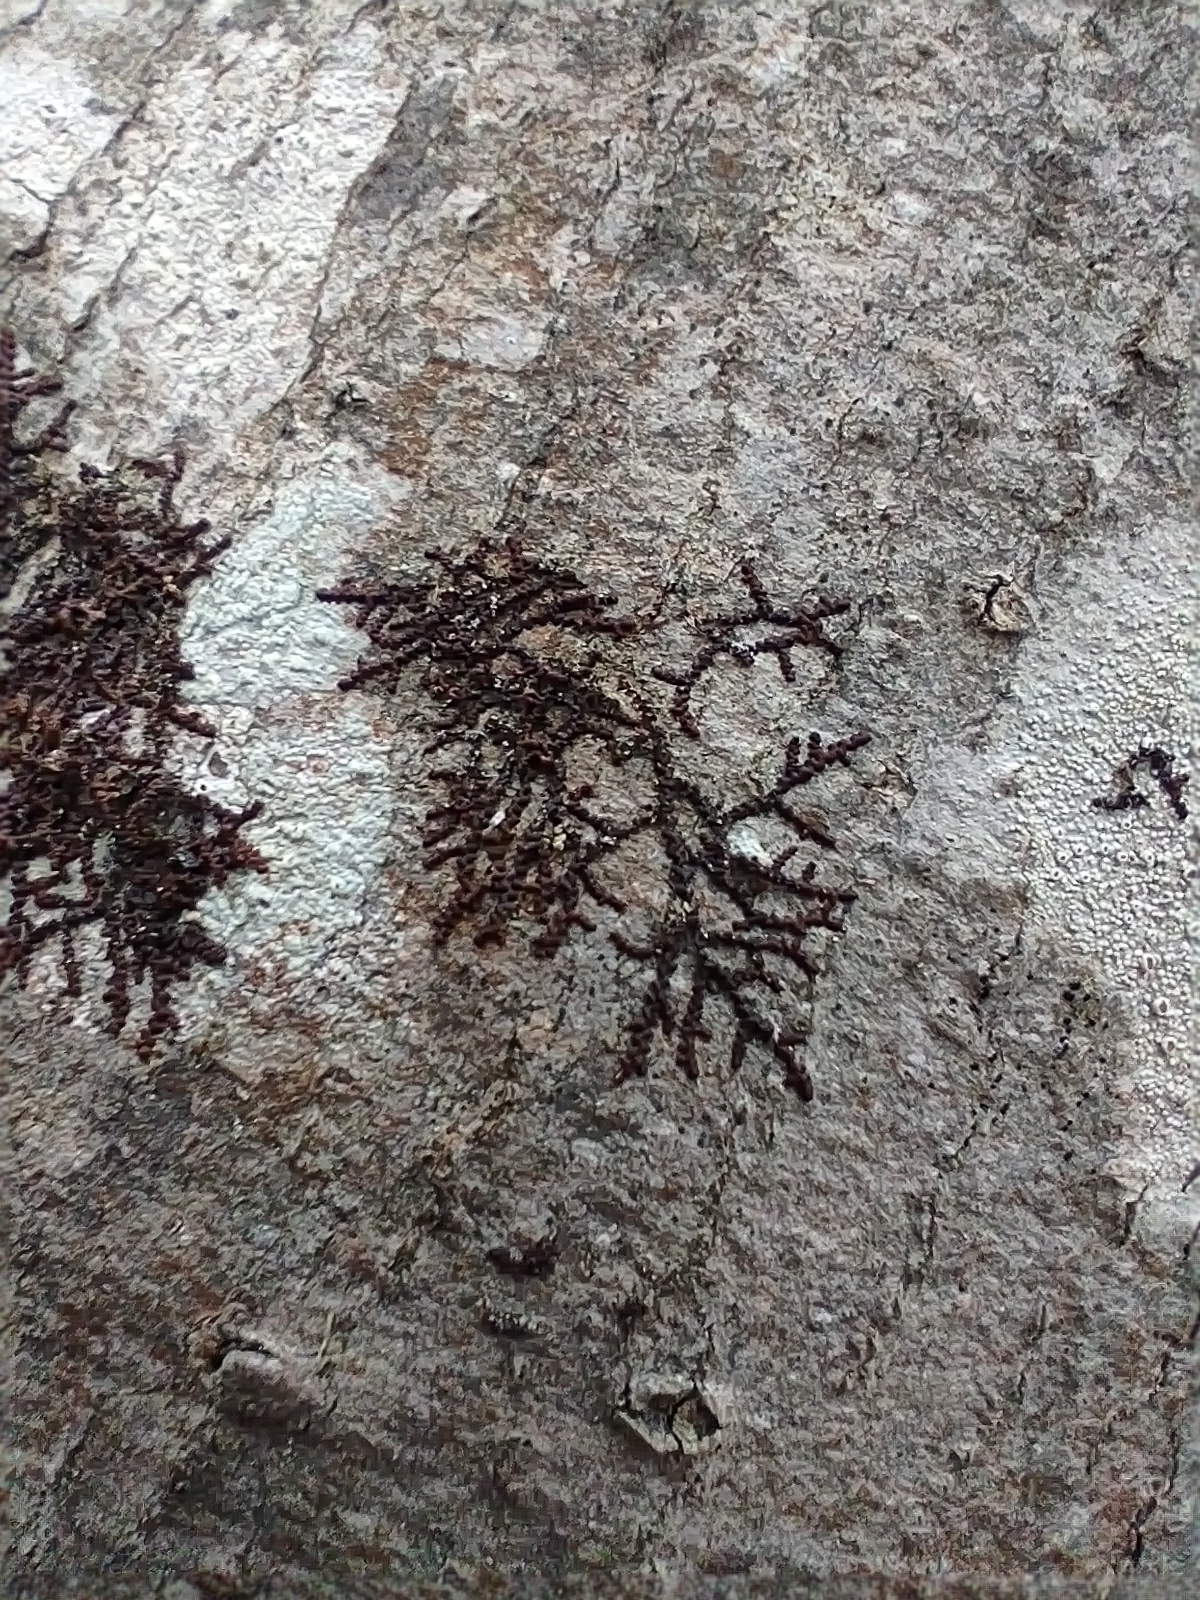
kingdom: Plantae
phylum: Marchantiophyta
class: Jungermanniopsida
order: Porellales
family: Frullaniaceae
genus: Frullania
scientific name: Frullania eboracensis
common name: New york scalewort
